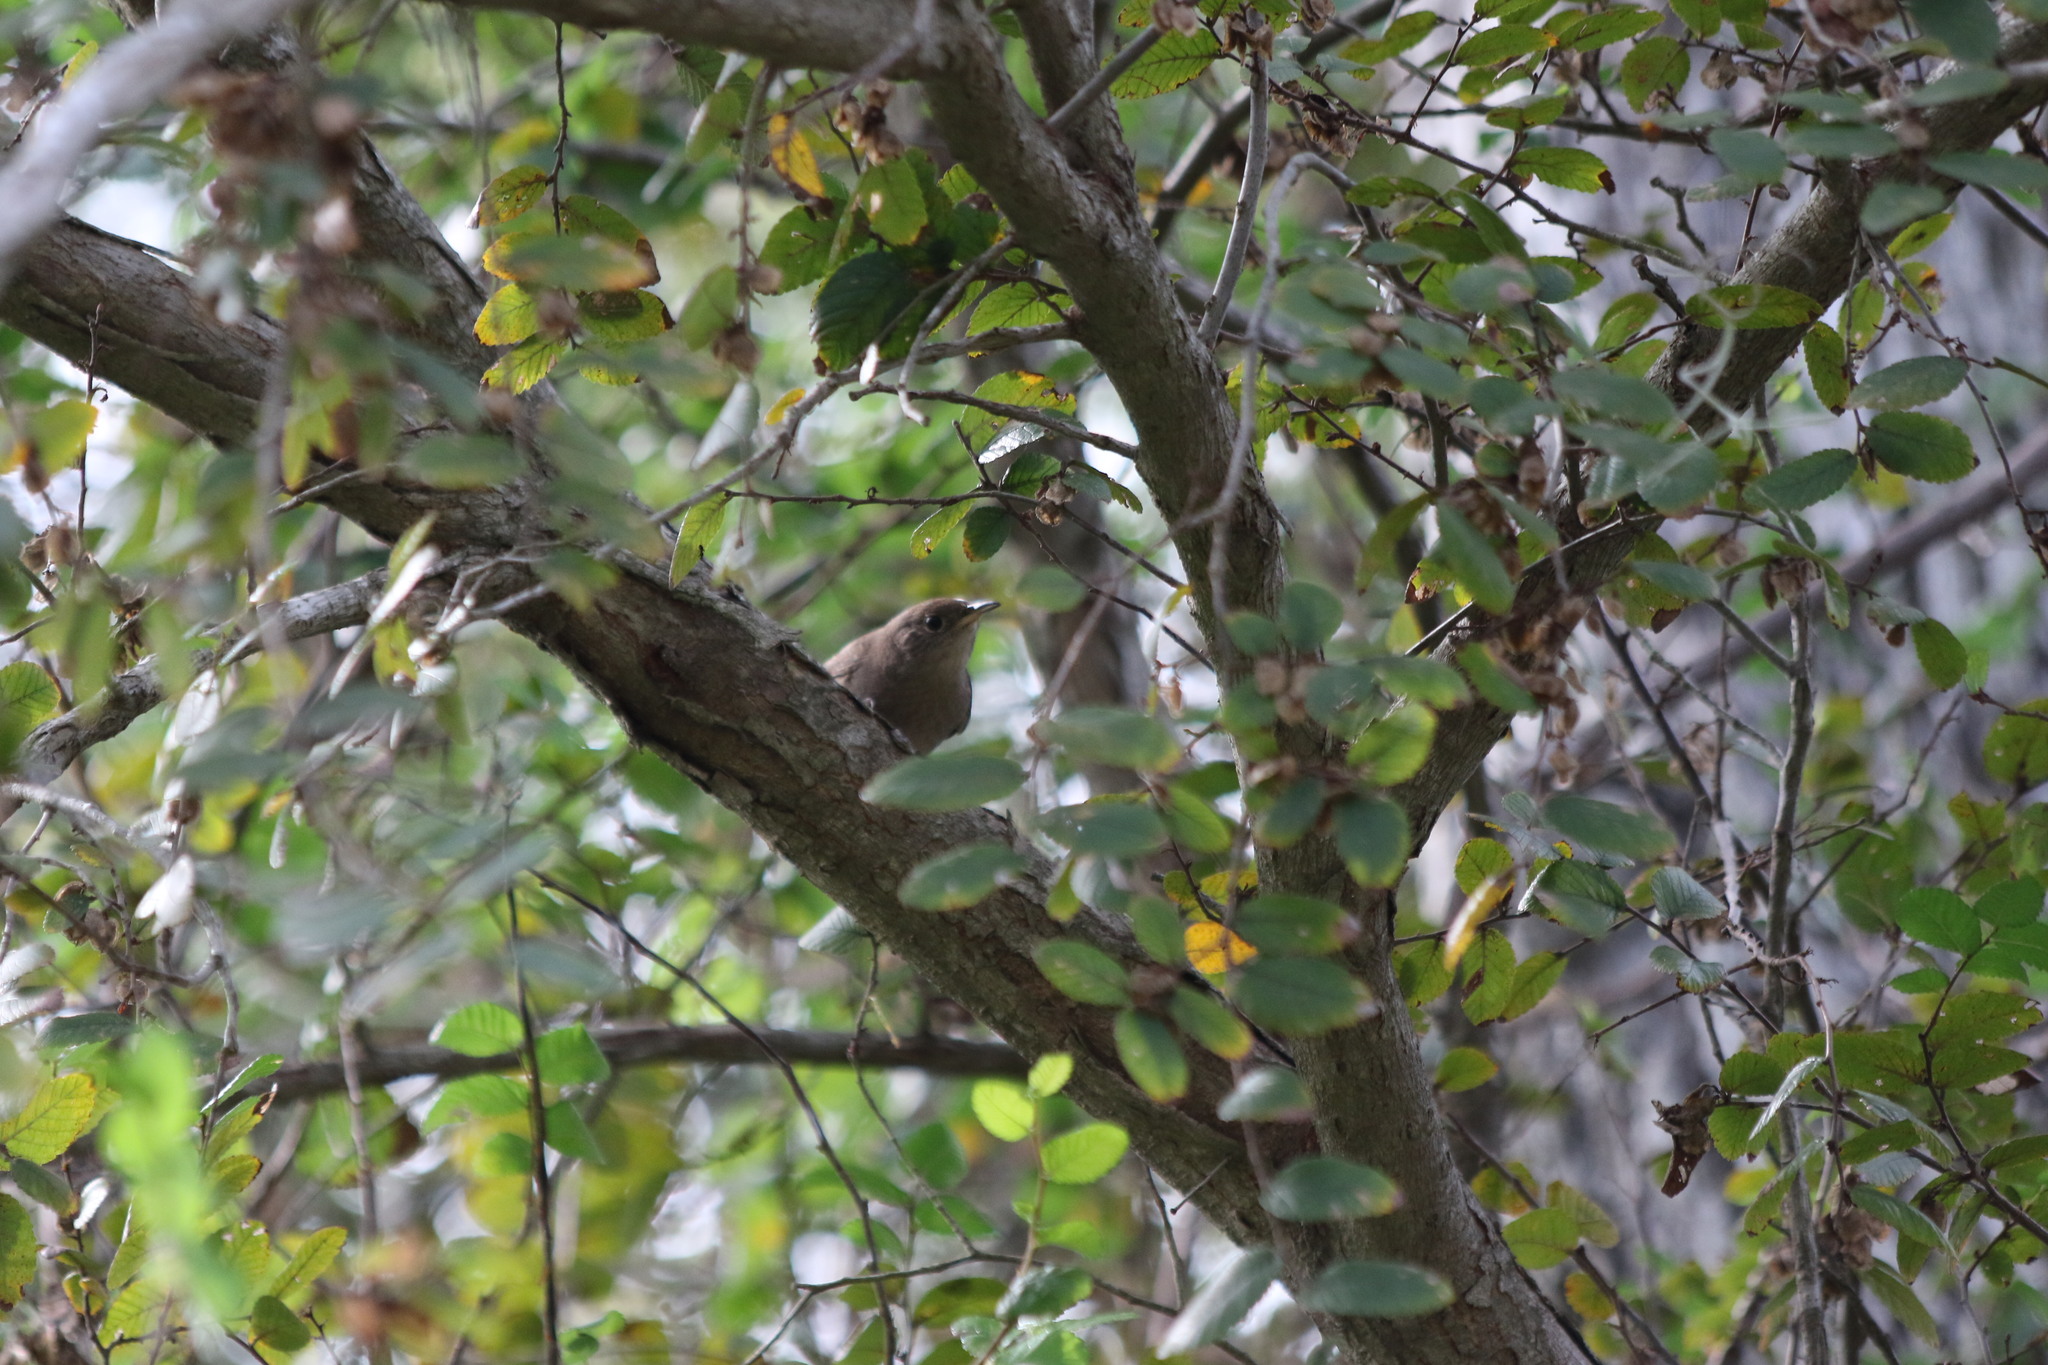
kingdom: Animalia
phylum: Chordata
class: Aves
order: Passeriformes
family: Troglodytidae
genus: Troglodytes
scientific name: Troglodytes aedon
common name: House wren
